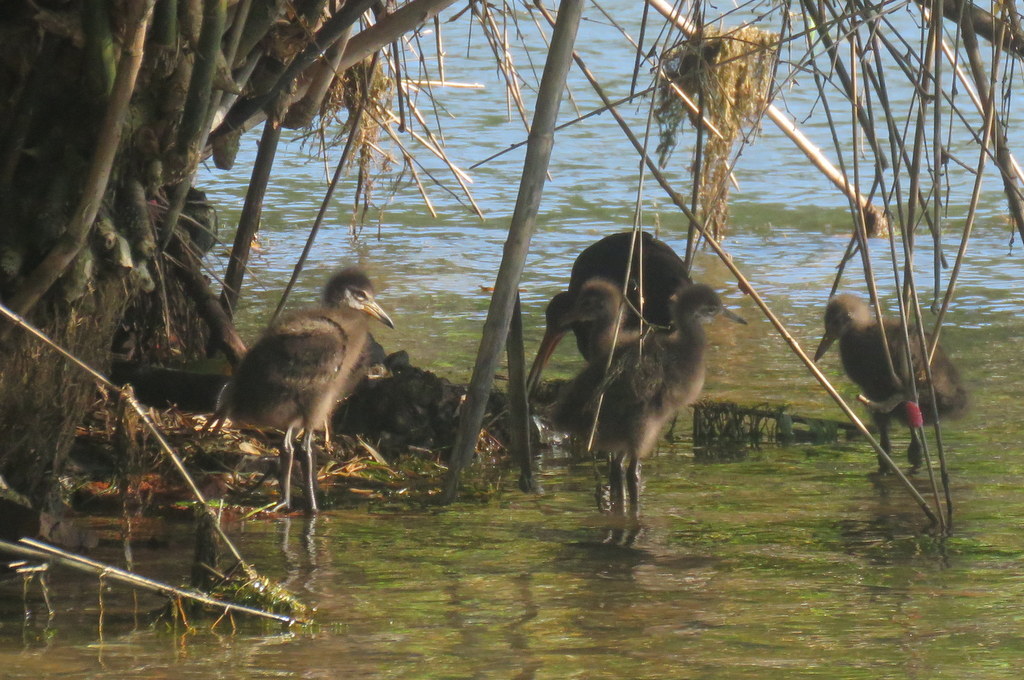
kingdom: Animalia
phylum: Chordata
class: Aves
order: Gruiformes
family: Aramidae
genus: Aramus
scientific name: Aramus guarauna
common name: Limpkin
